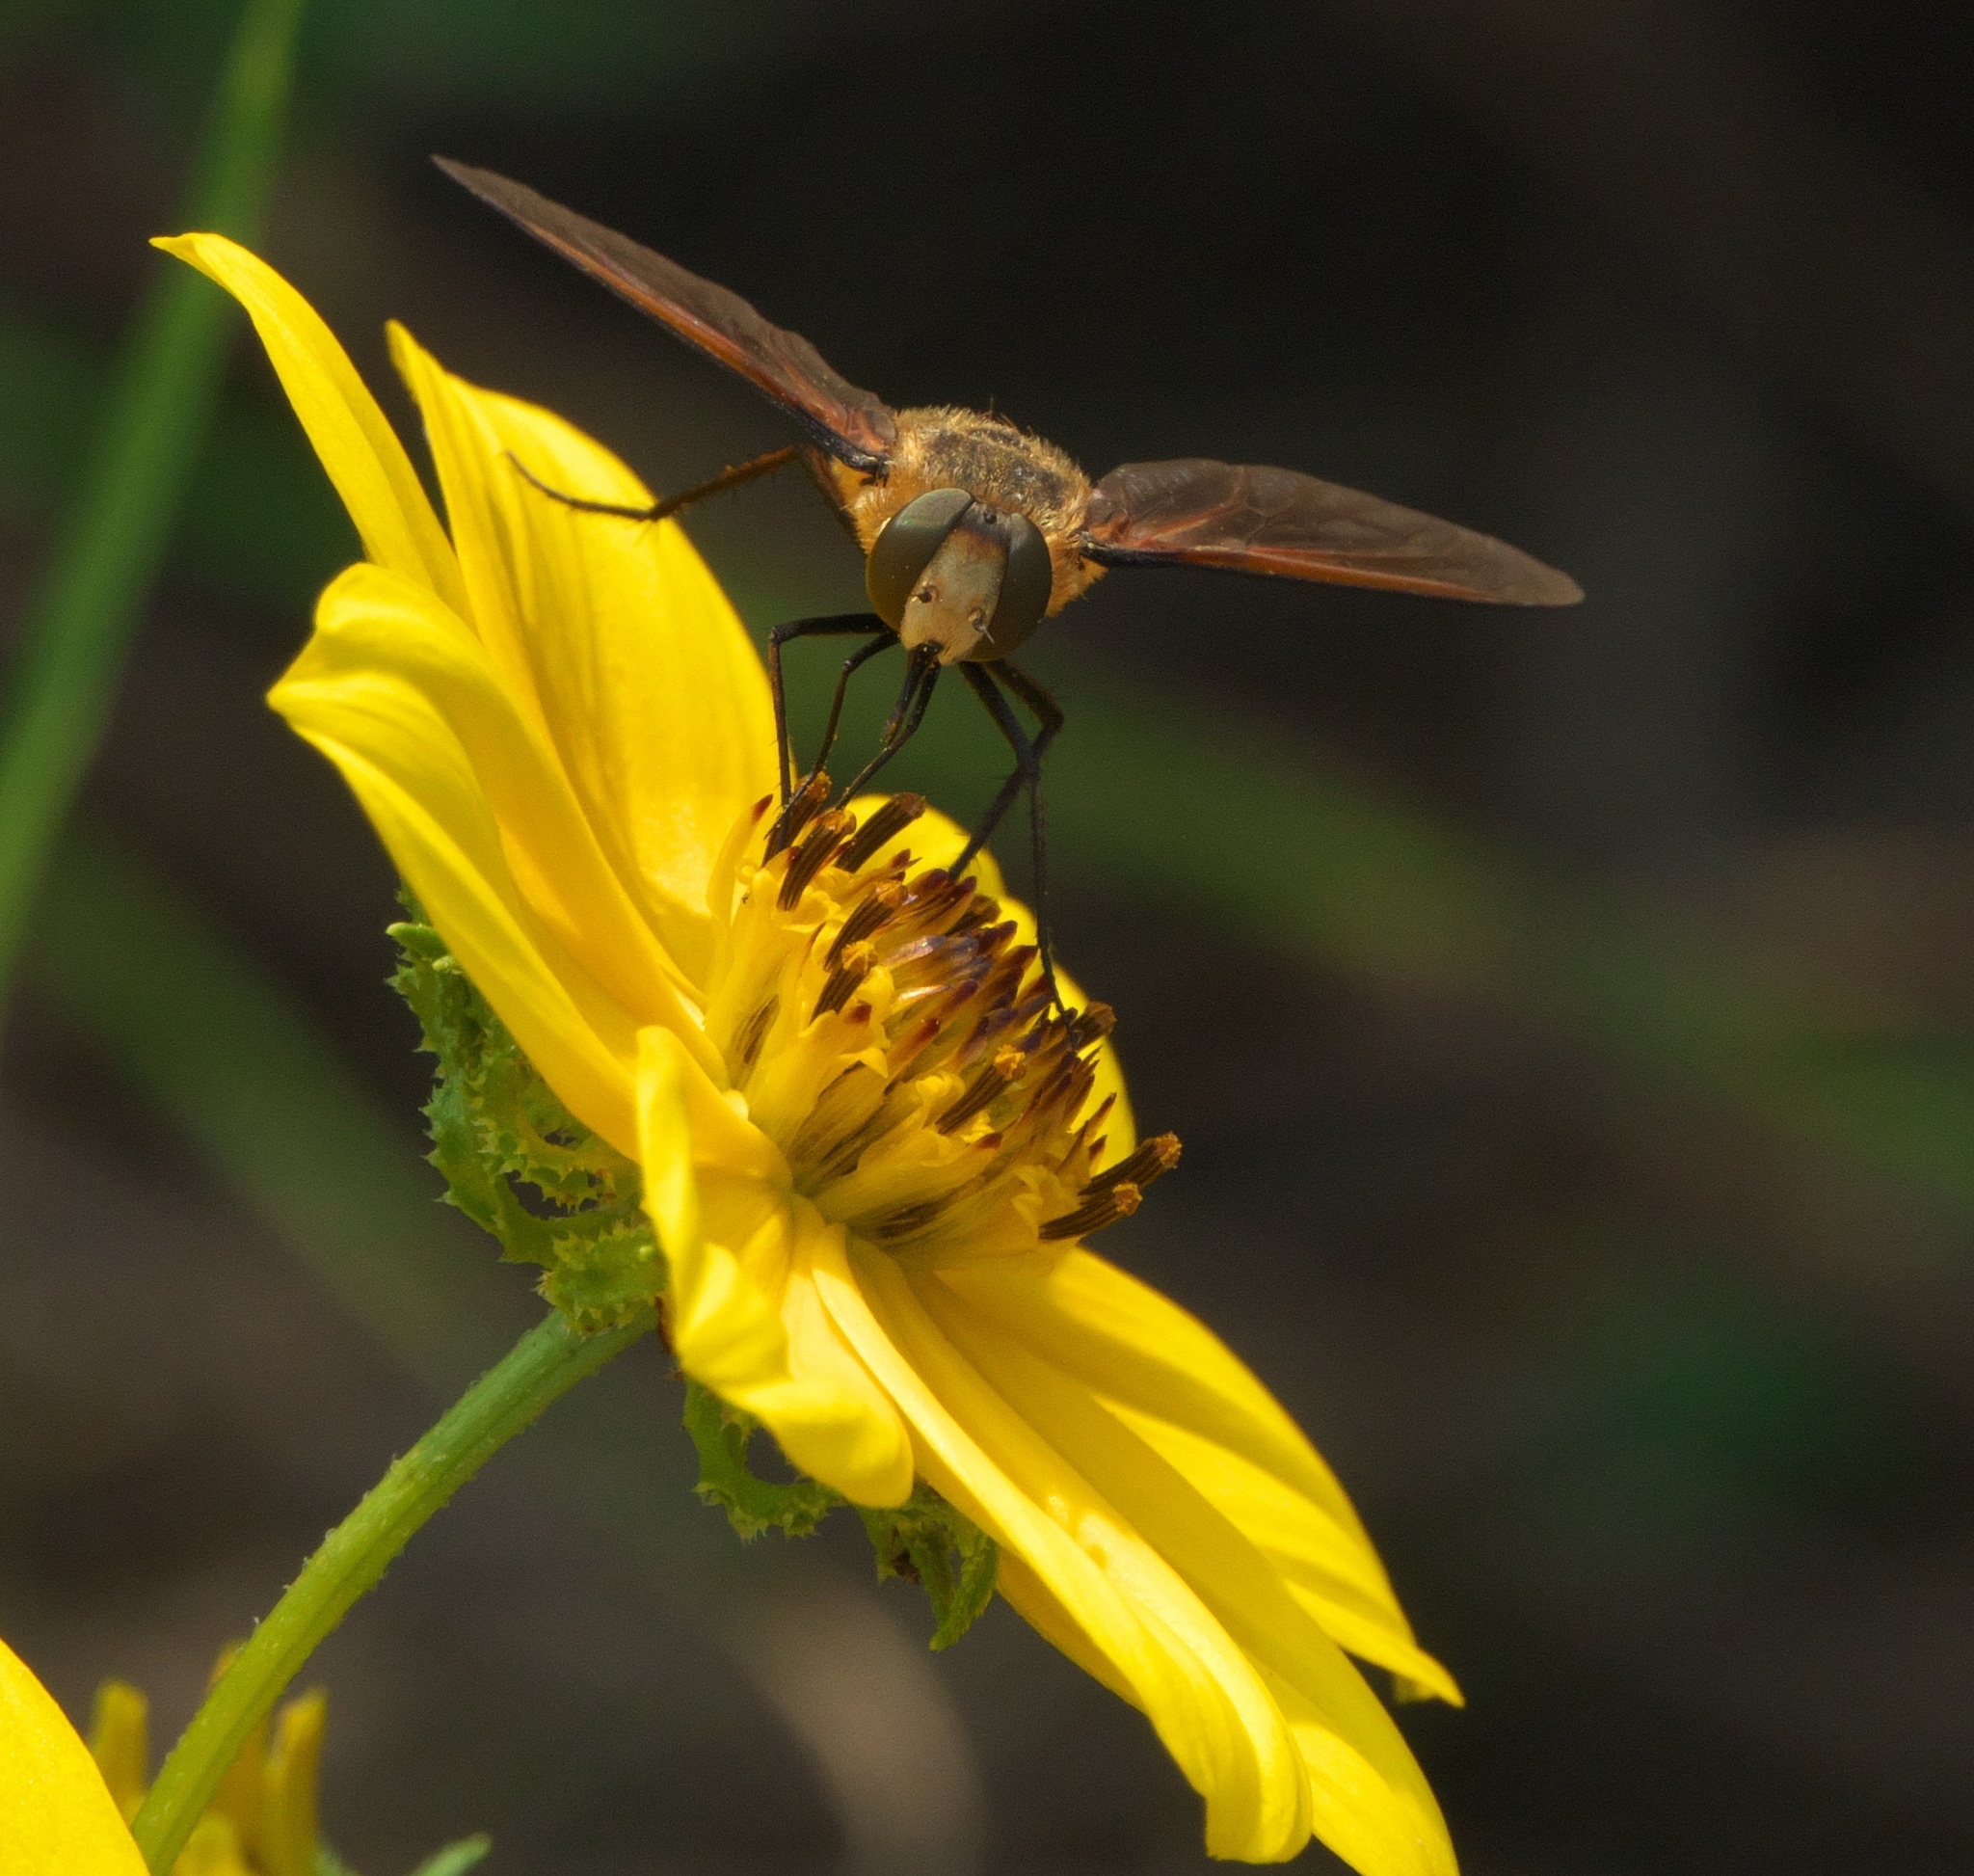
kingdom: Animalia
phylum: Arthropoda
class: Insecta
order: Diptera
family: Bombyliidae
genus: Poecilanthrax
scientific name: Poecilanthrax lucifer
